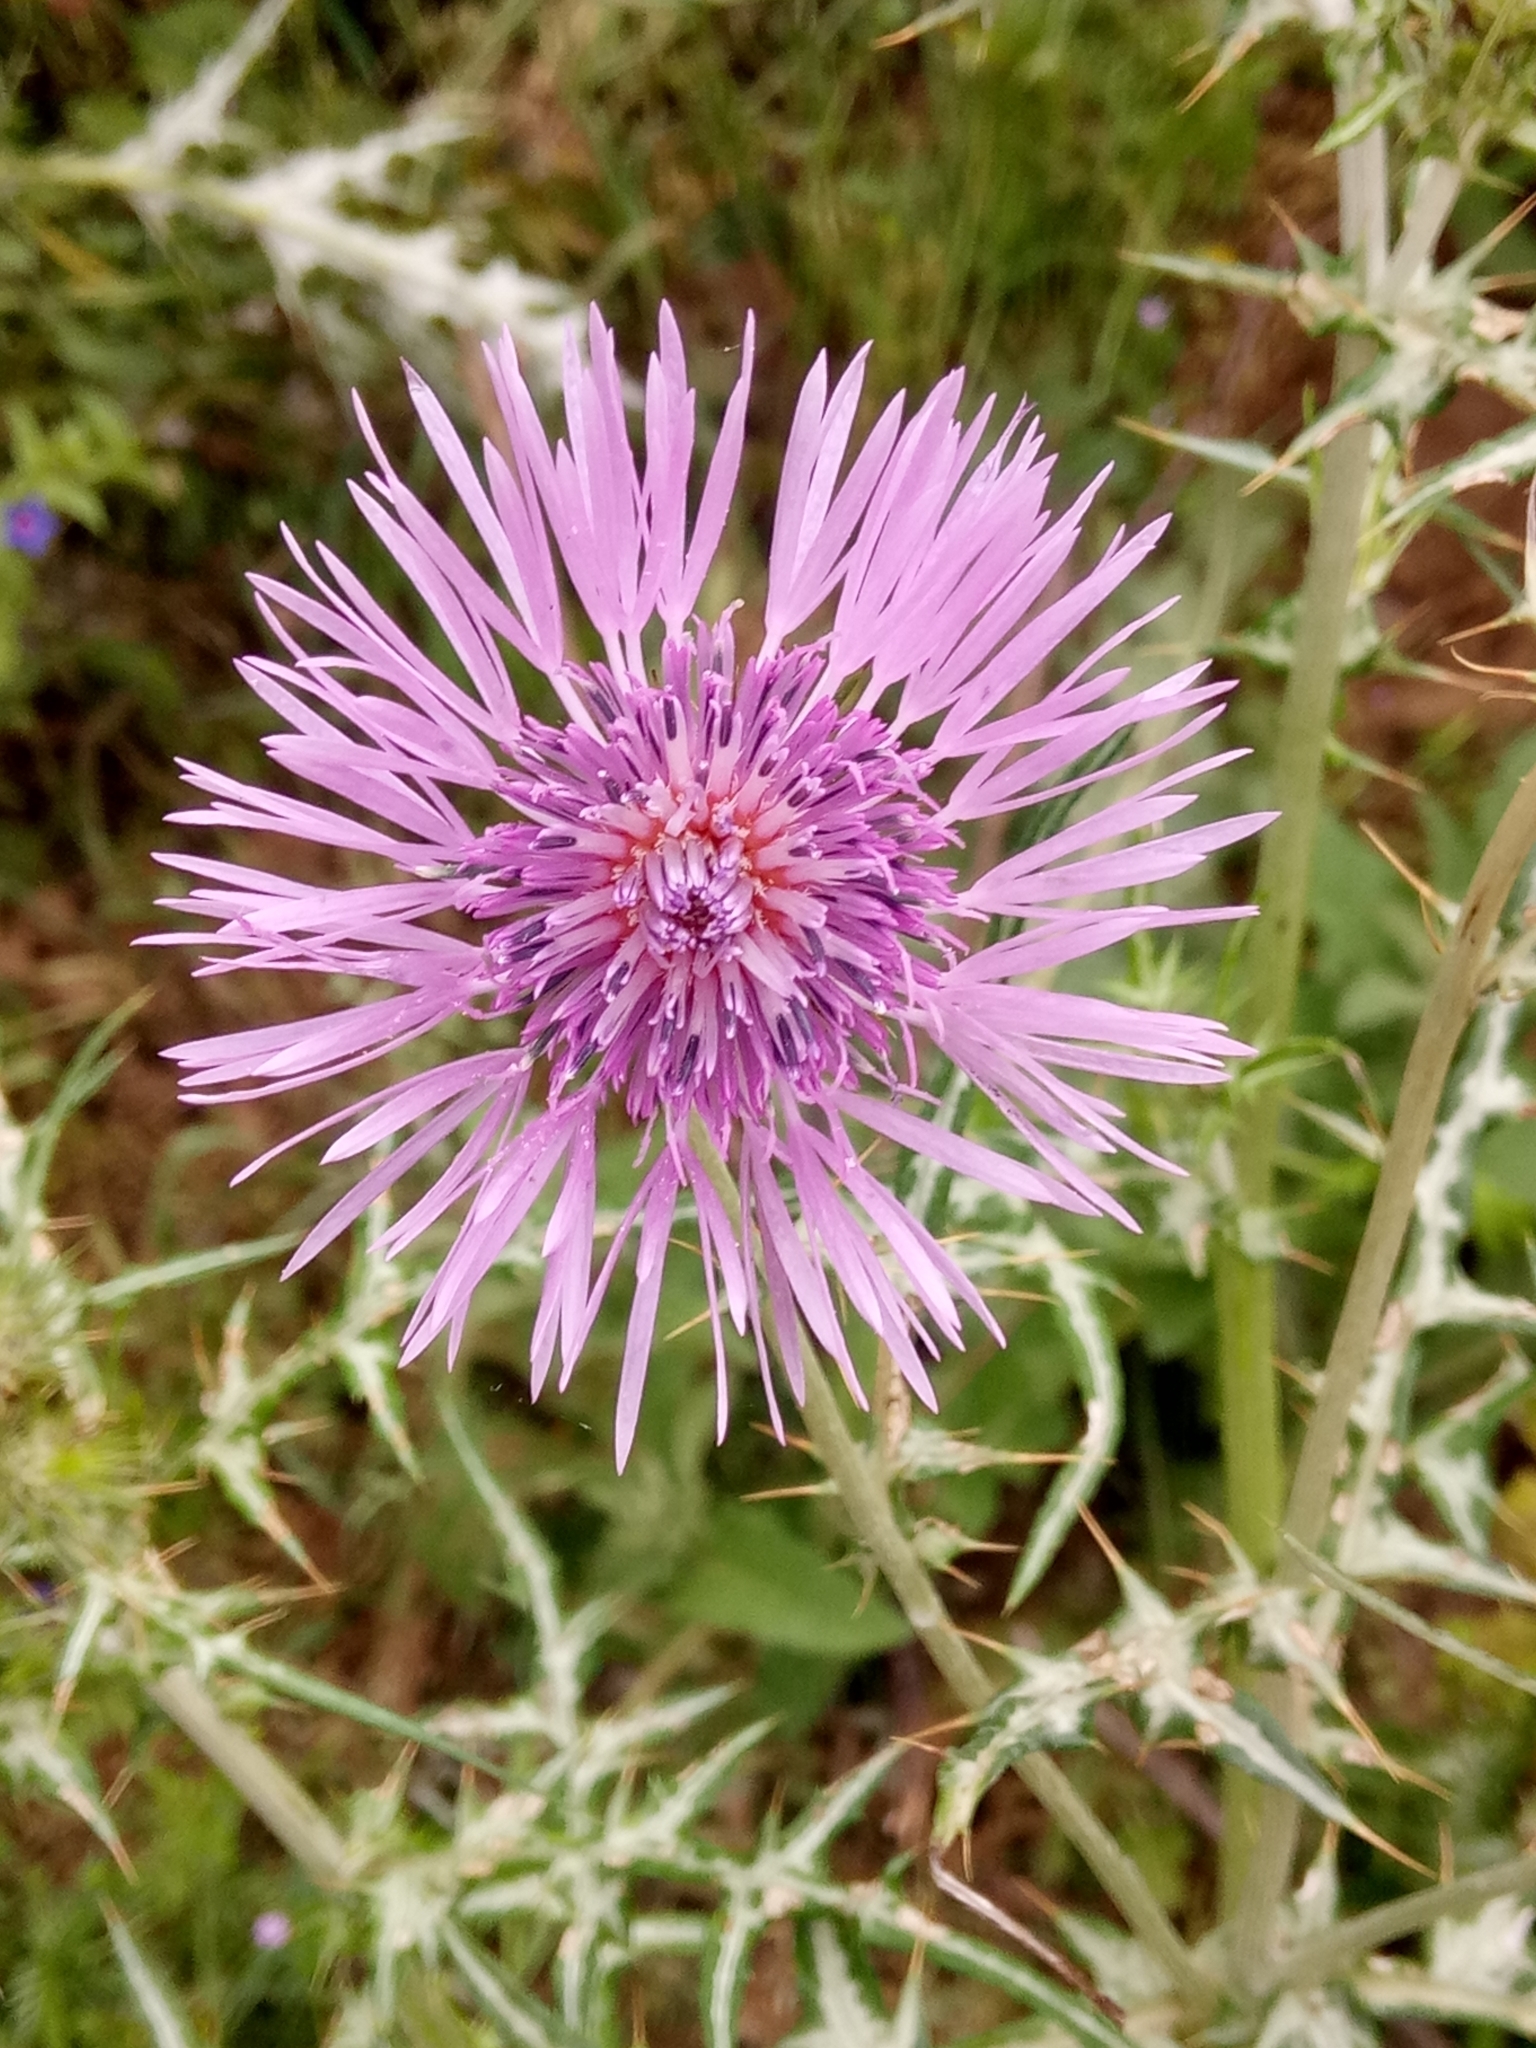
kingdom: Plantae
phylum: Tracheophyta
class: Magnoliopsida
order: Asterales
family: Asteraceae
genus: Galactites
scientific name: Galactites tomentosa
